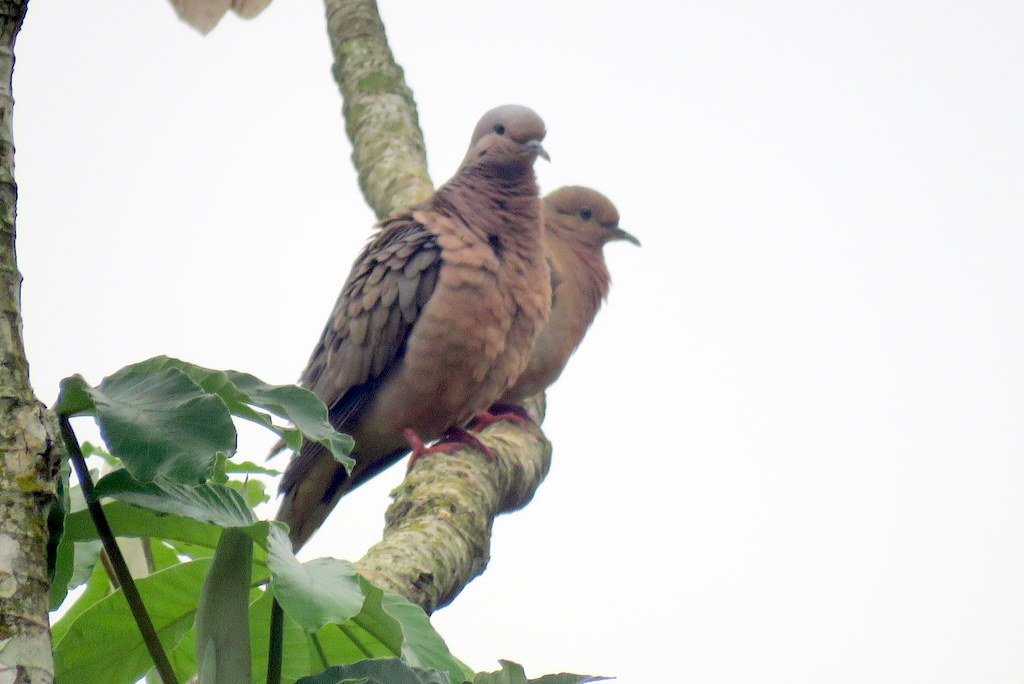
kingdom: Animalia
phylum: Chordata
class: Aves
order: Columbiformes
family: Columbidae
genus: Zenaida
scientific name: Zenaida auriculata
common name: Eared dove
